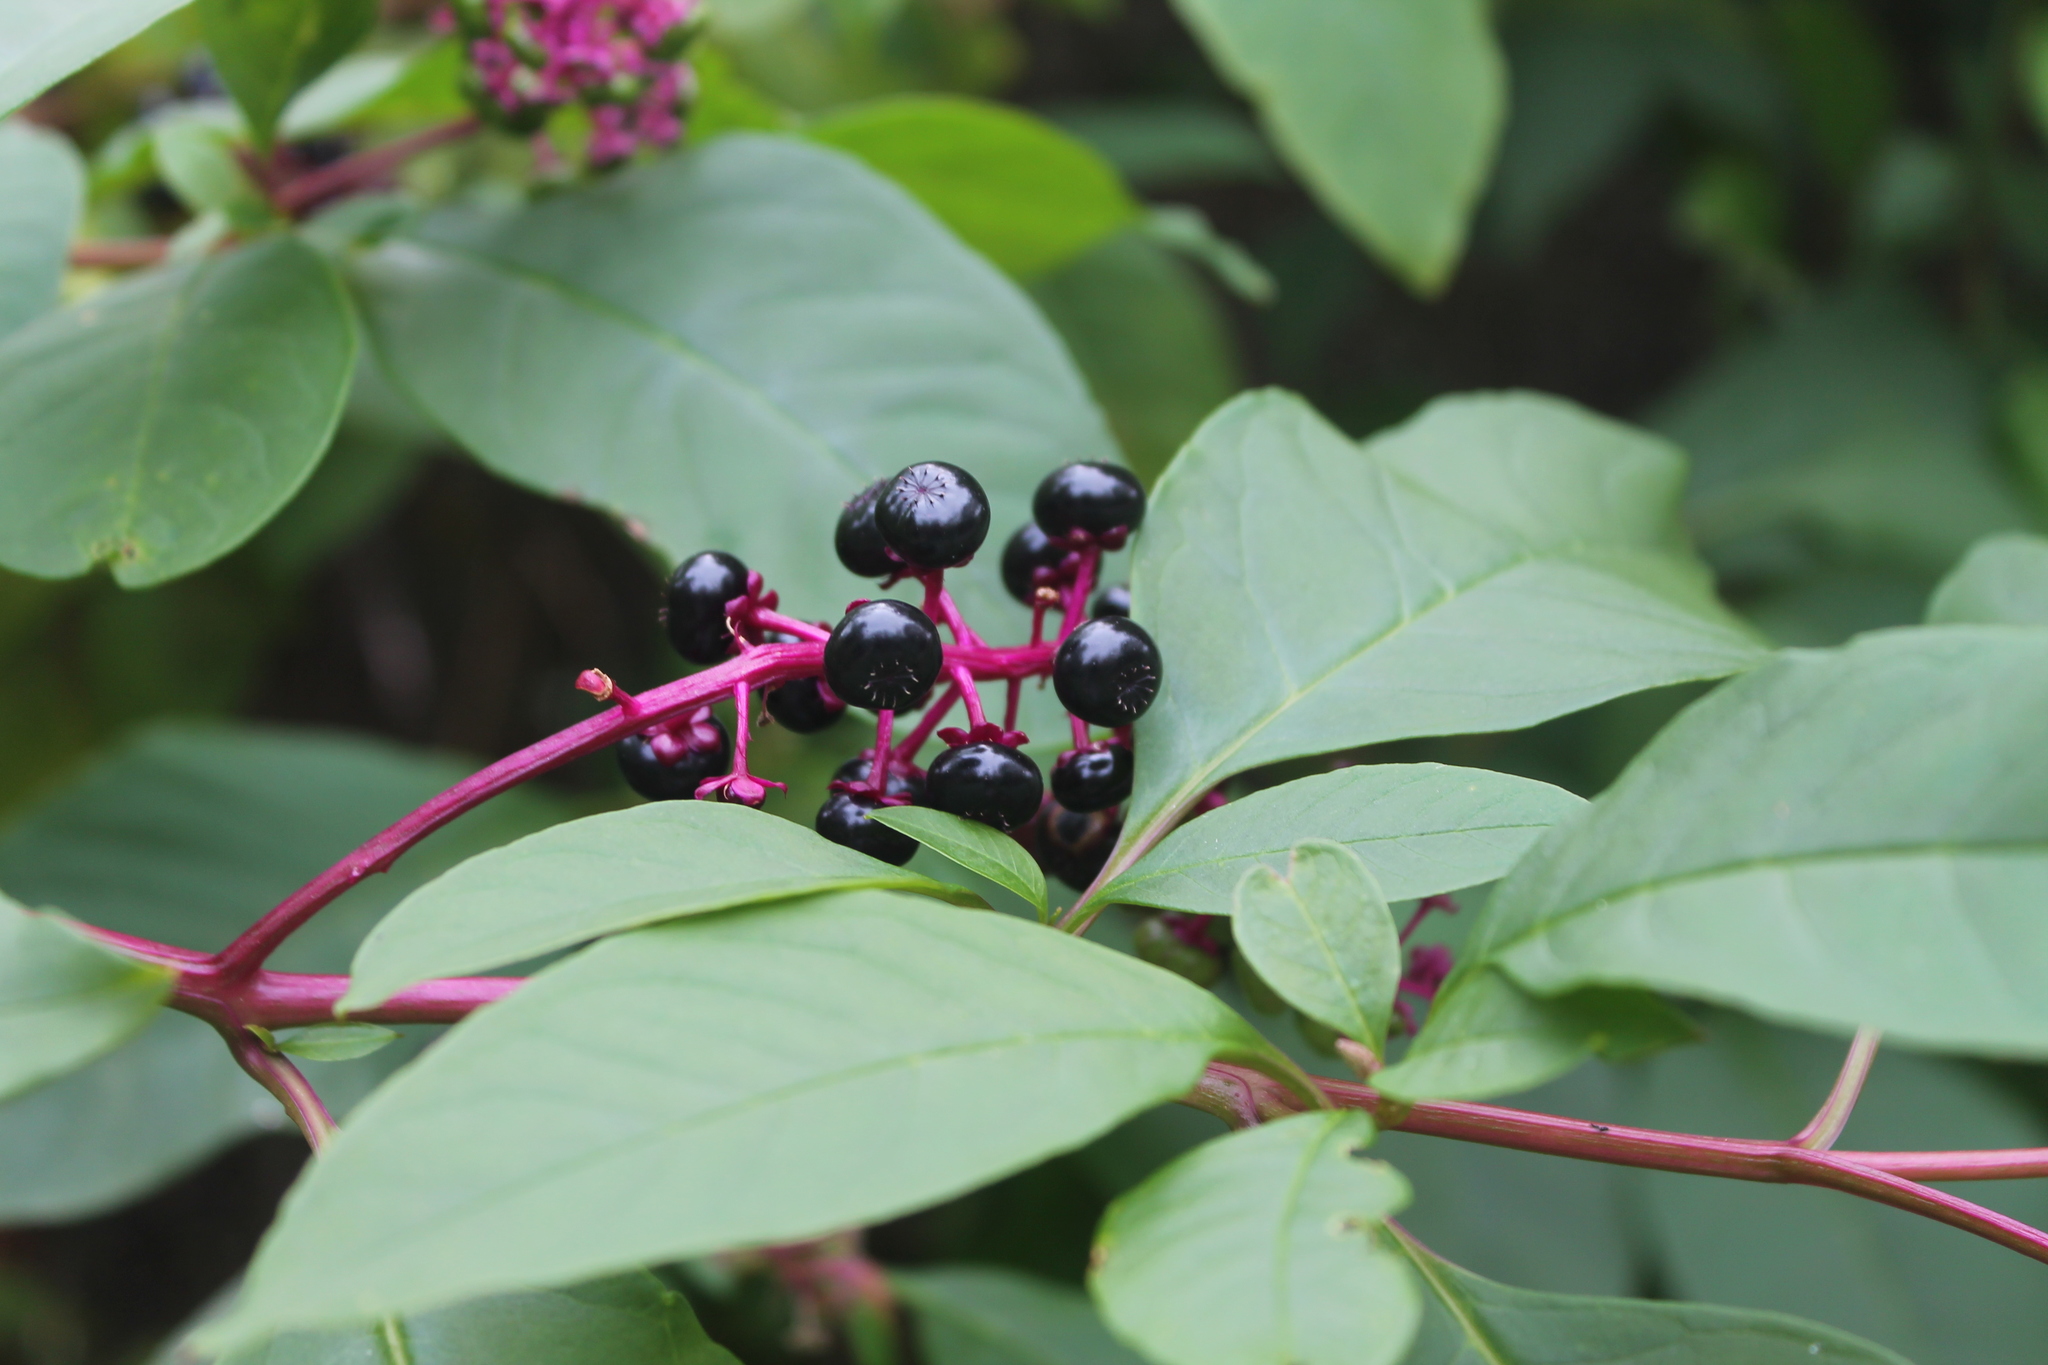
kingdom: Plantae
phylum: Tracheophyta
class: Magnoliopsida
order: Caryophyllales
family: Phytolaccaceae
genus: Phytolacca
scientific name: Phytolacca americana
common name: American pokeweed
